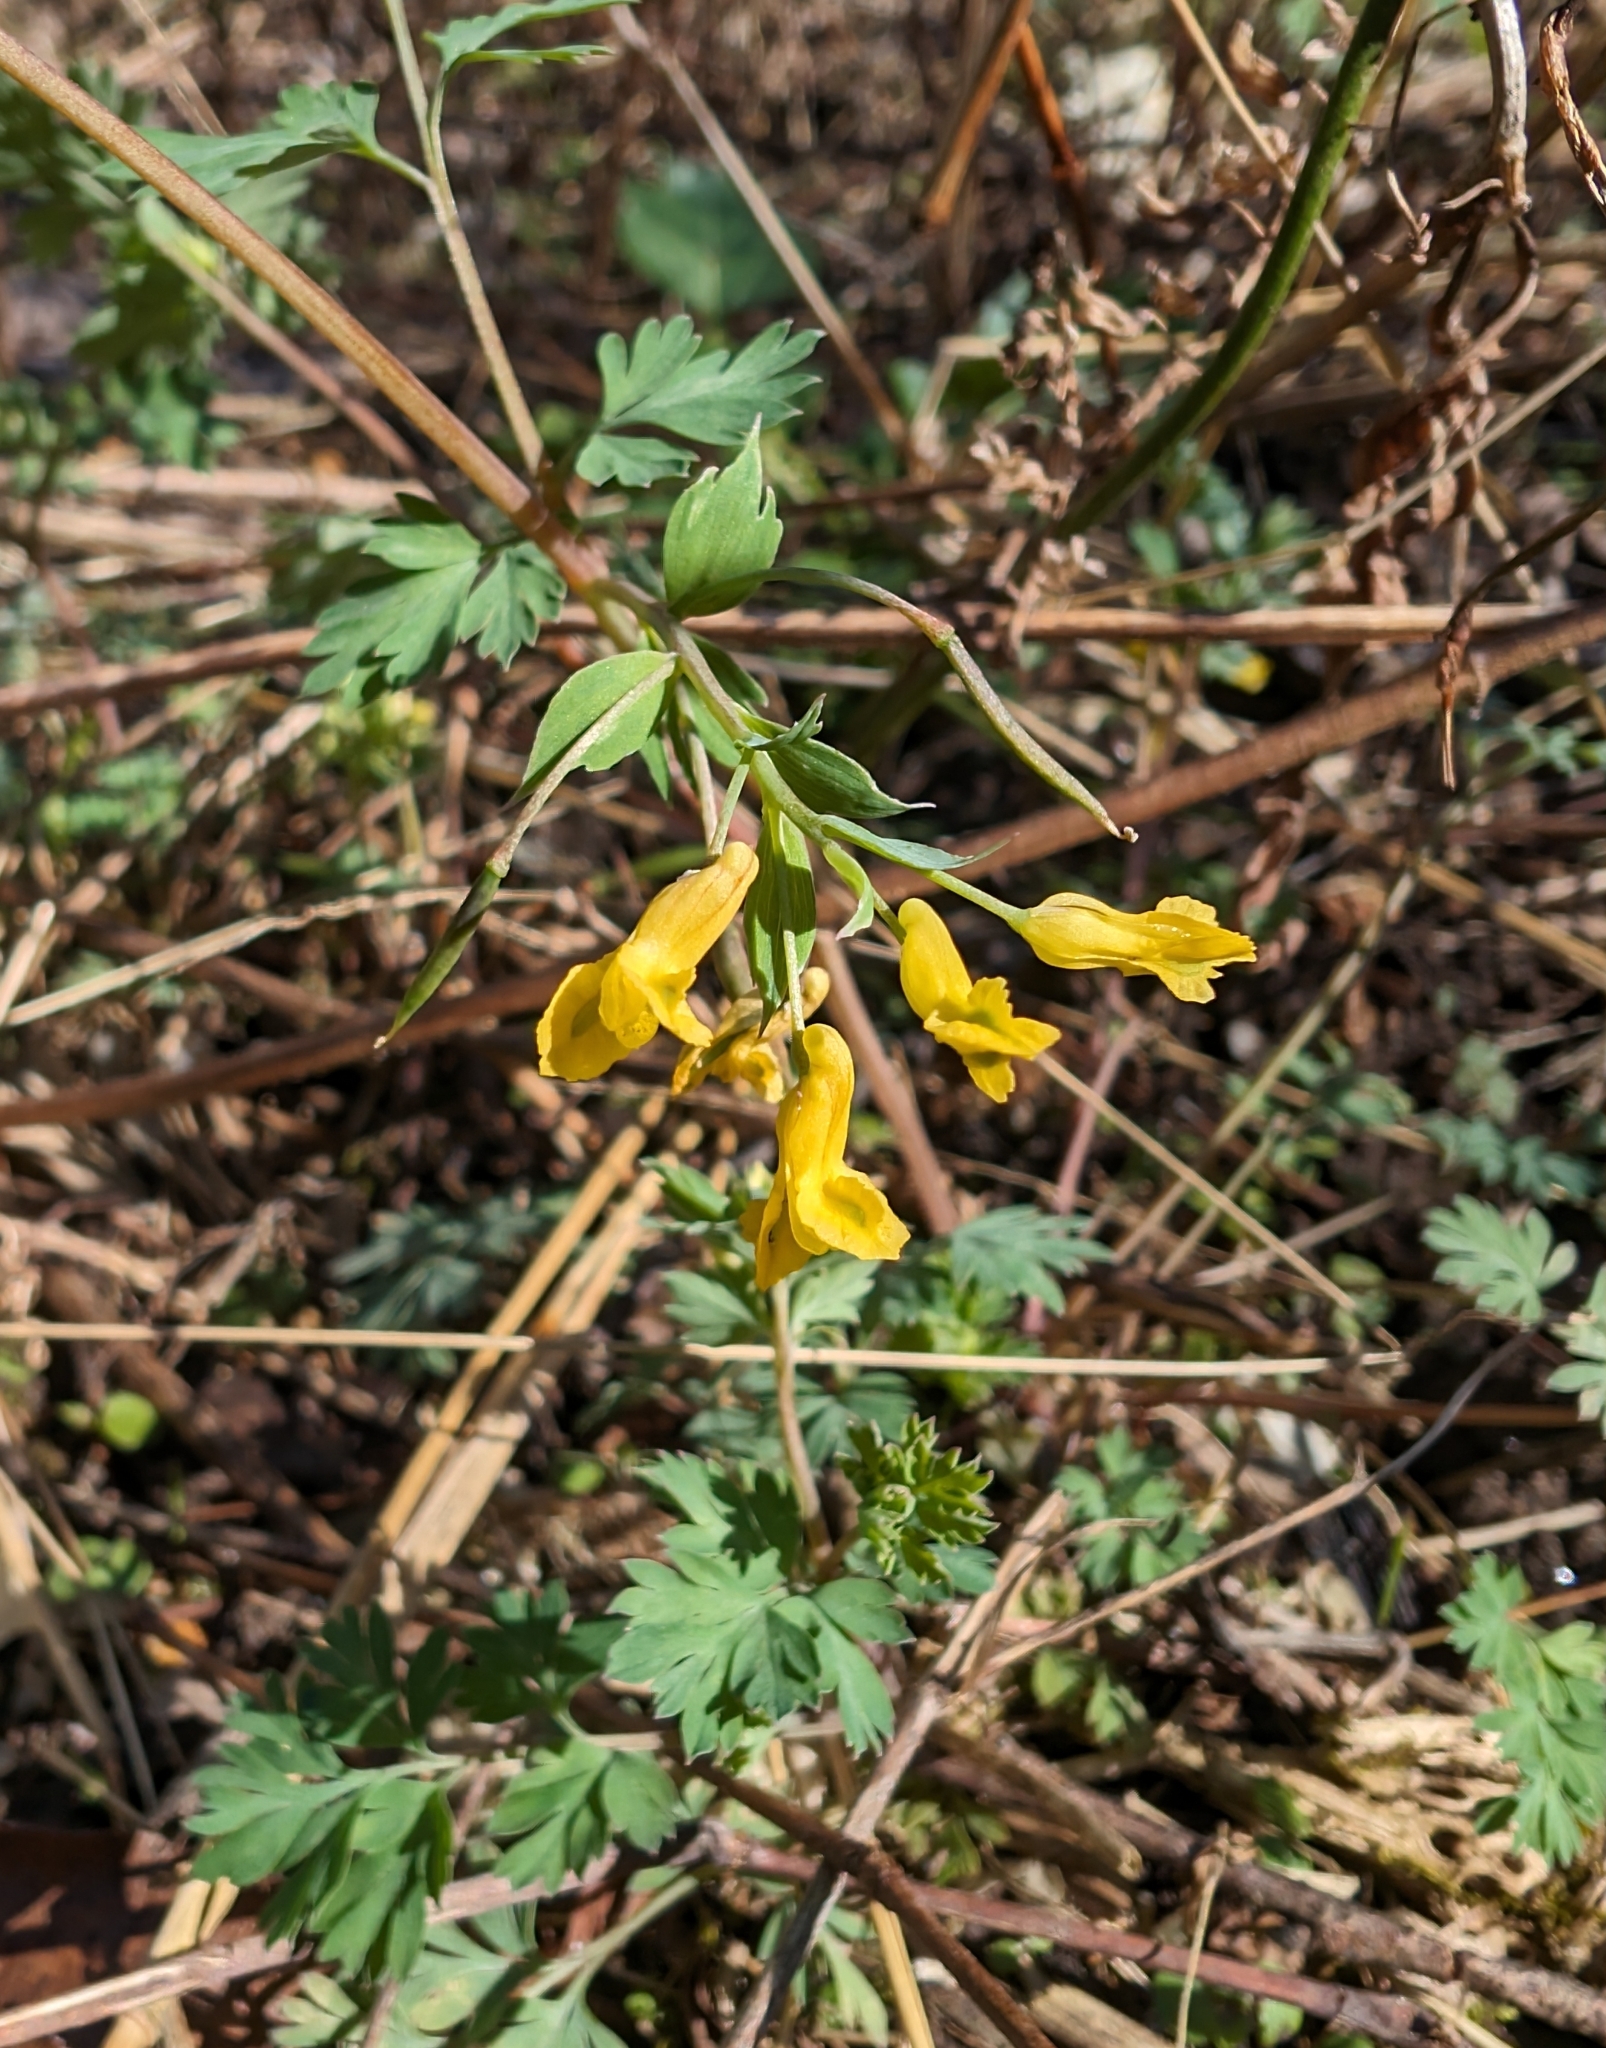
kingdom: Plantae
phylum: Tracheophyta
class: Magnoliopsida
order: Ranunculales
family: Papaveraceae
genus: Corydalis
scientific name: Corydalis flavula
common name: Yellow corydalis
